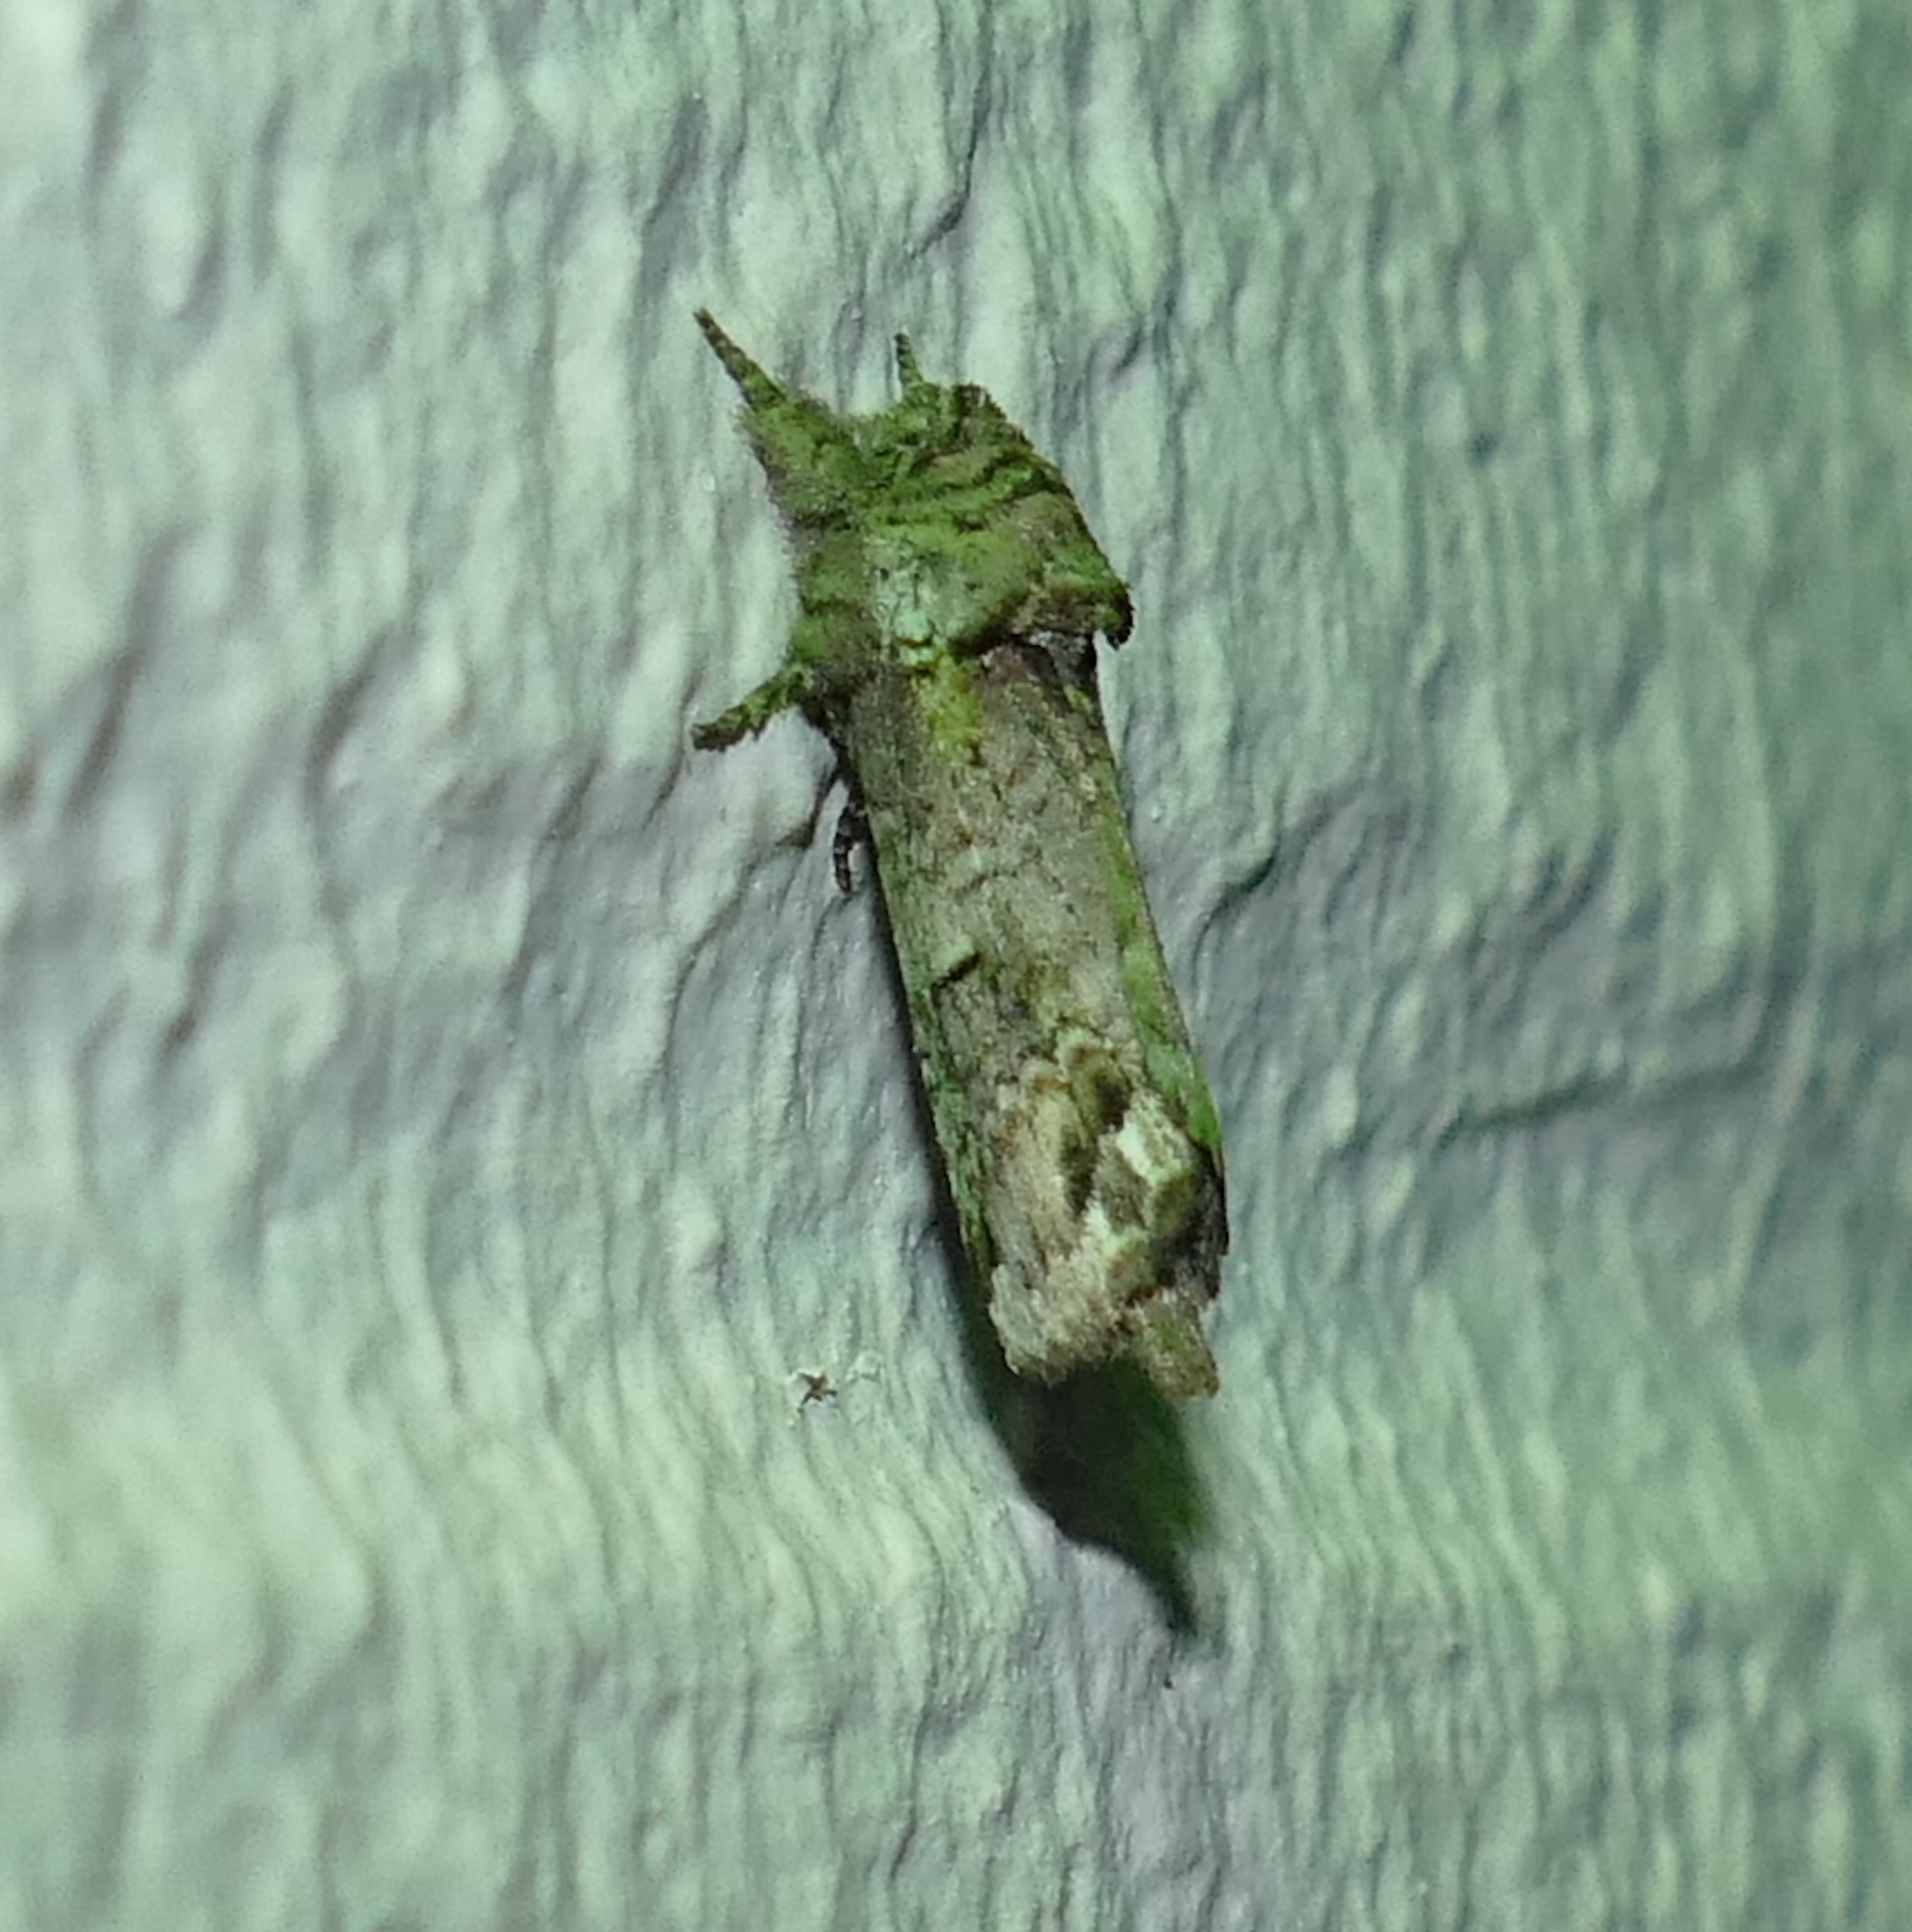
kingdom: Animalia
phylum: Arthropoda
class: Insecta
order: Lepidoptera
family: Notodontidae
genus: Schizura
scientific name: Schizura
